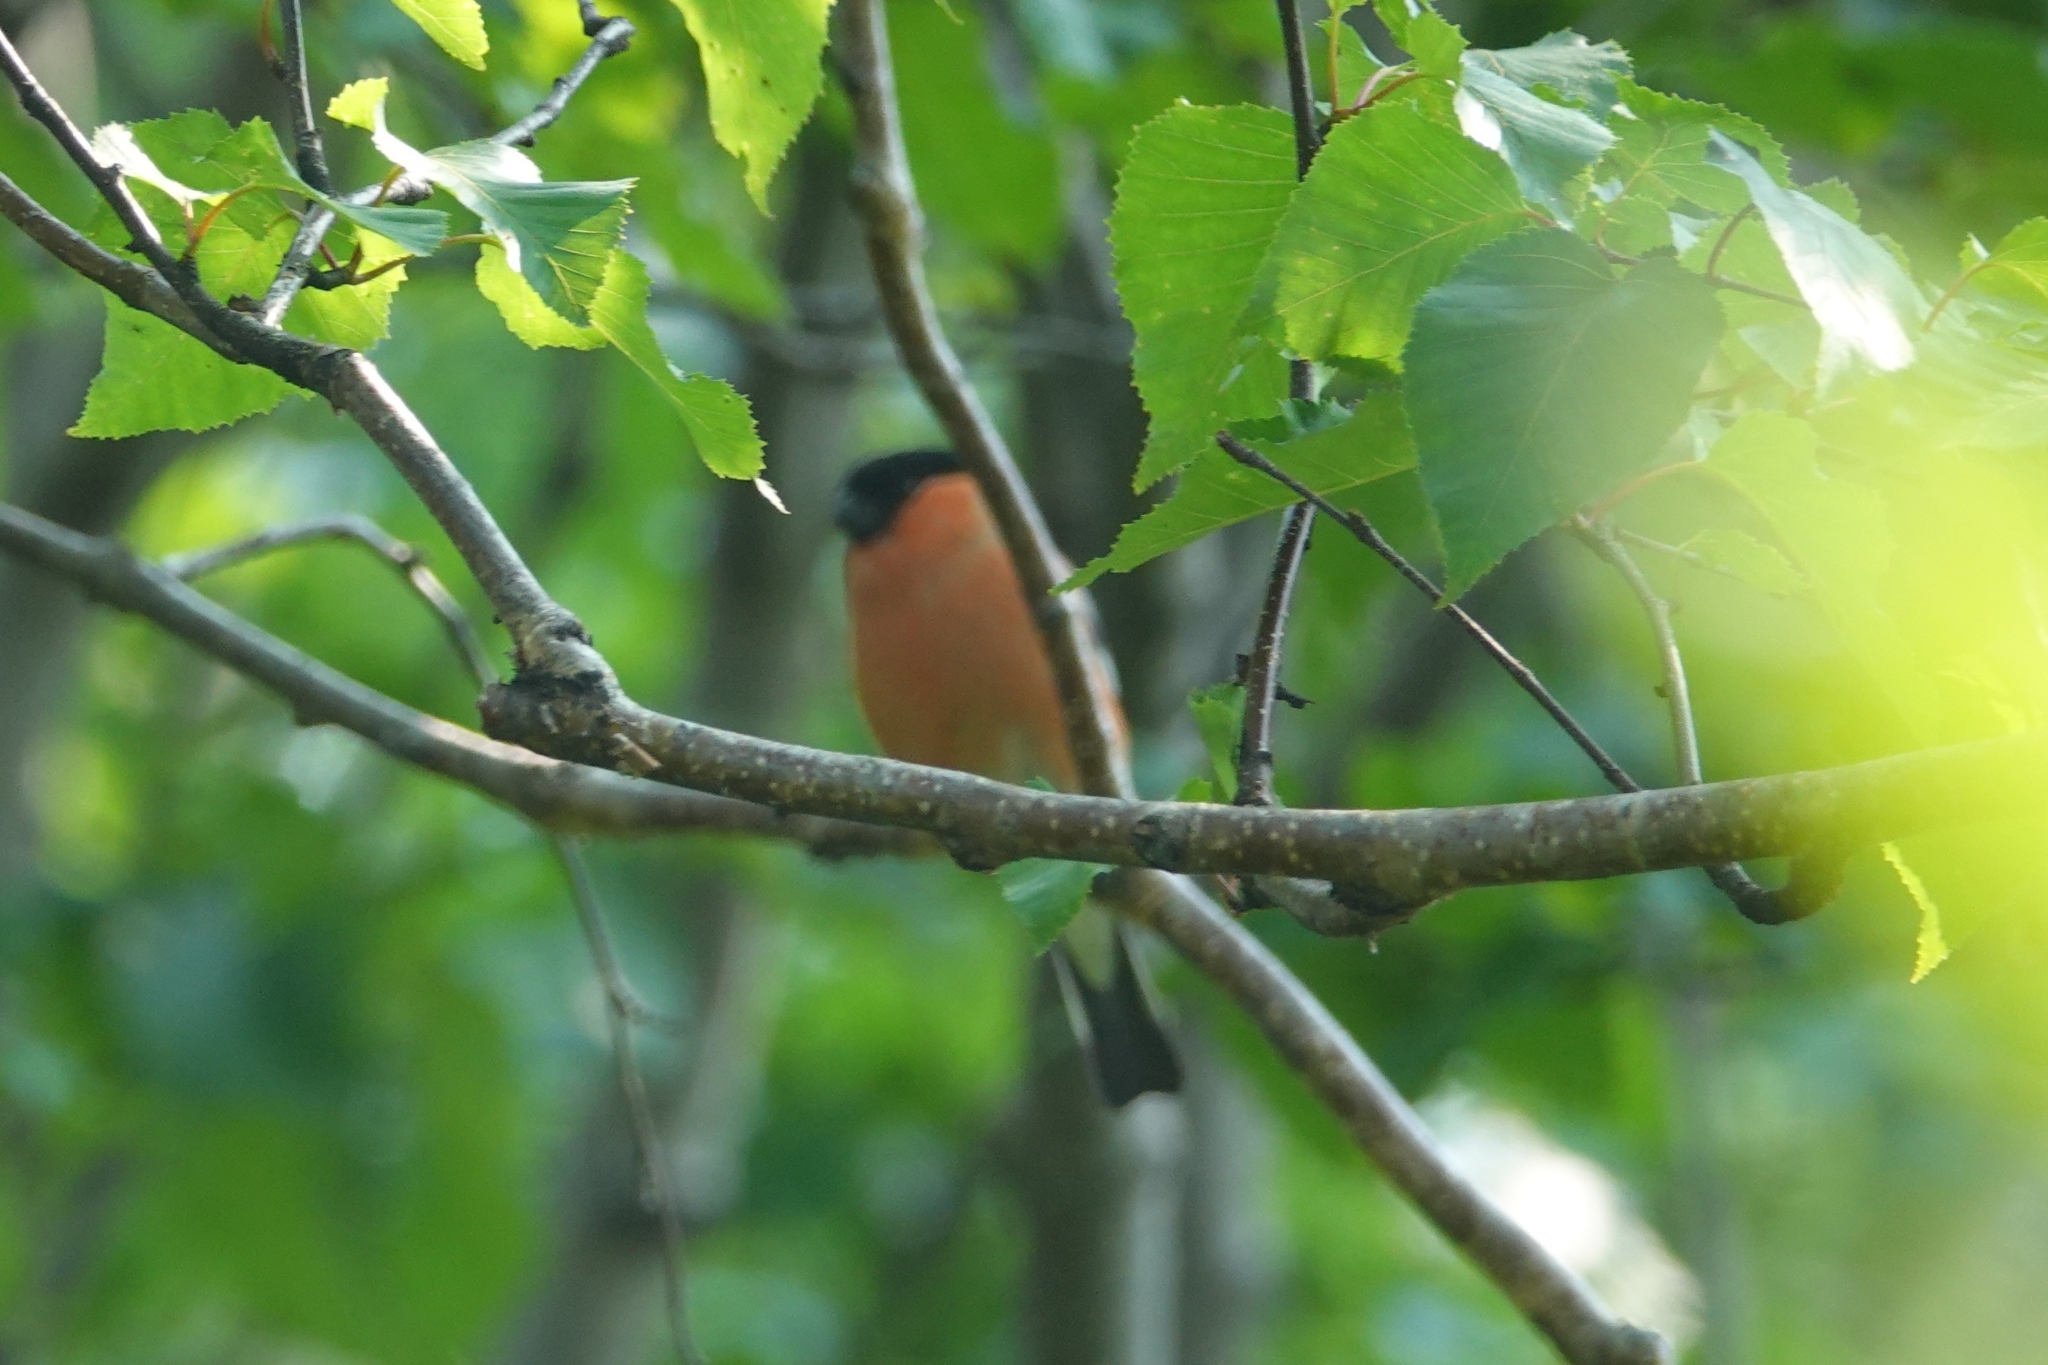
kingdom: Animalia
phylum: Chordata
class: Aves
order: Passeriformes
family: Fringillidae
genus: Pyrrhula
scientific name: Pyrrhula pyrrhula
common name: Eurasian bullfinch
